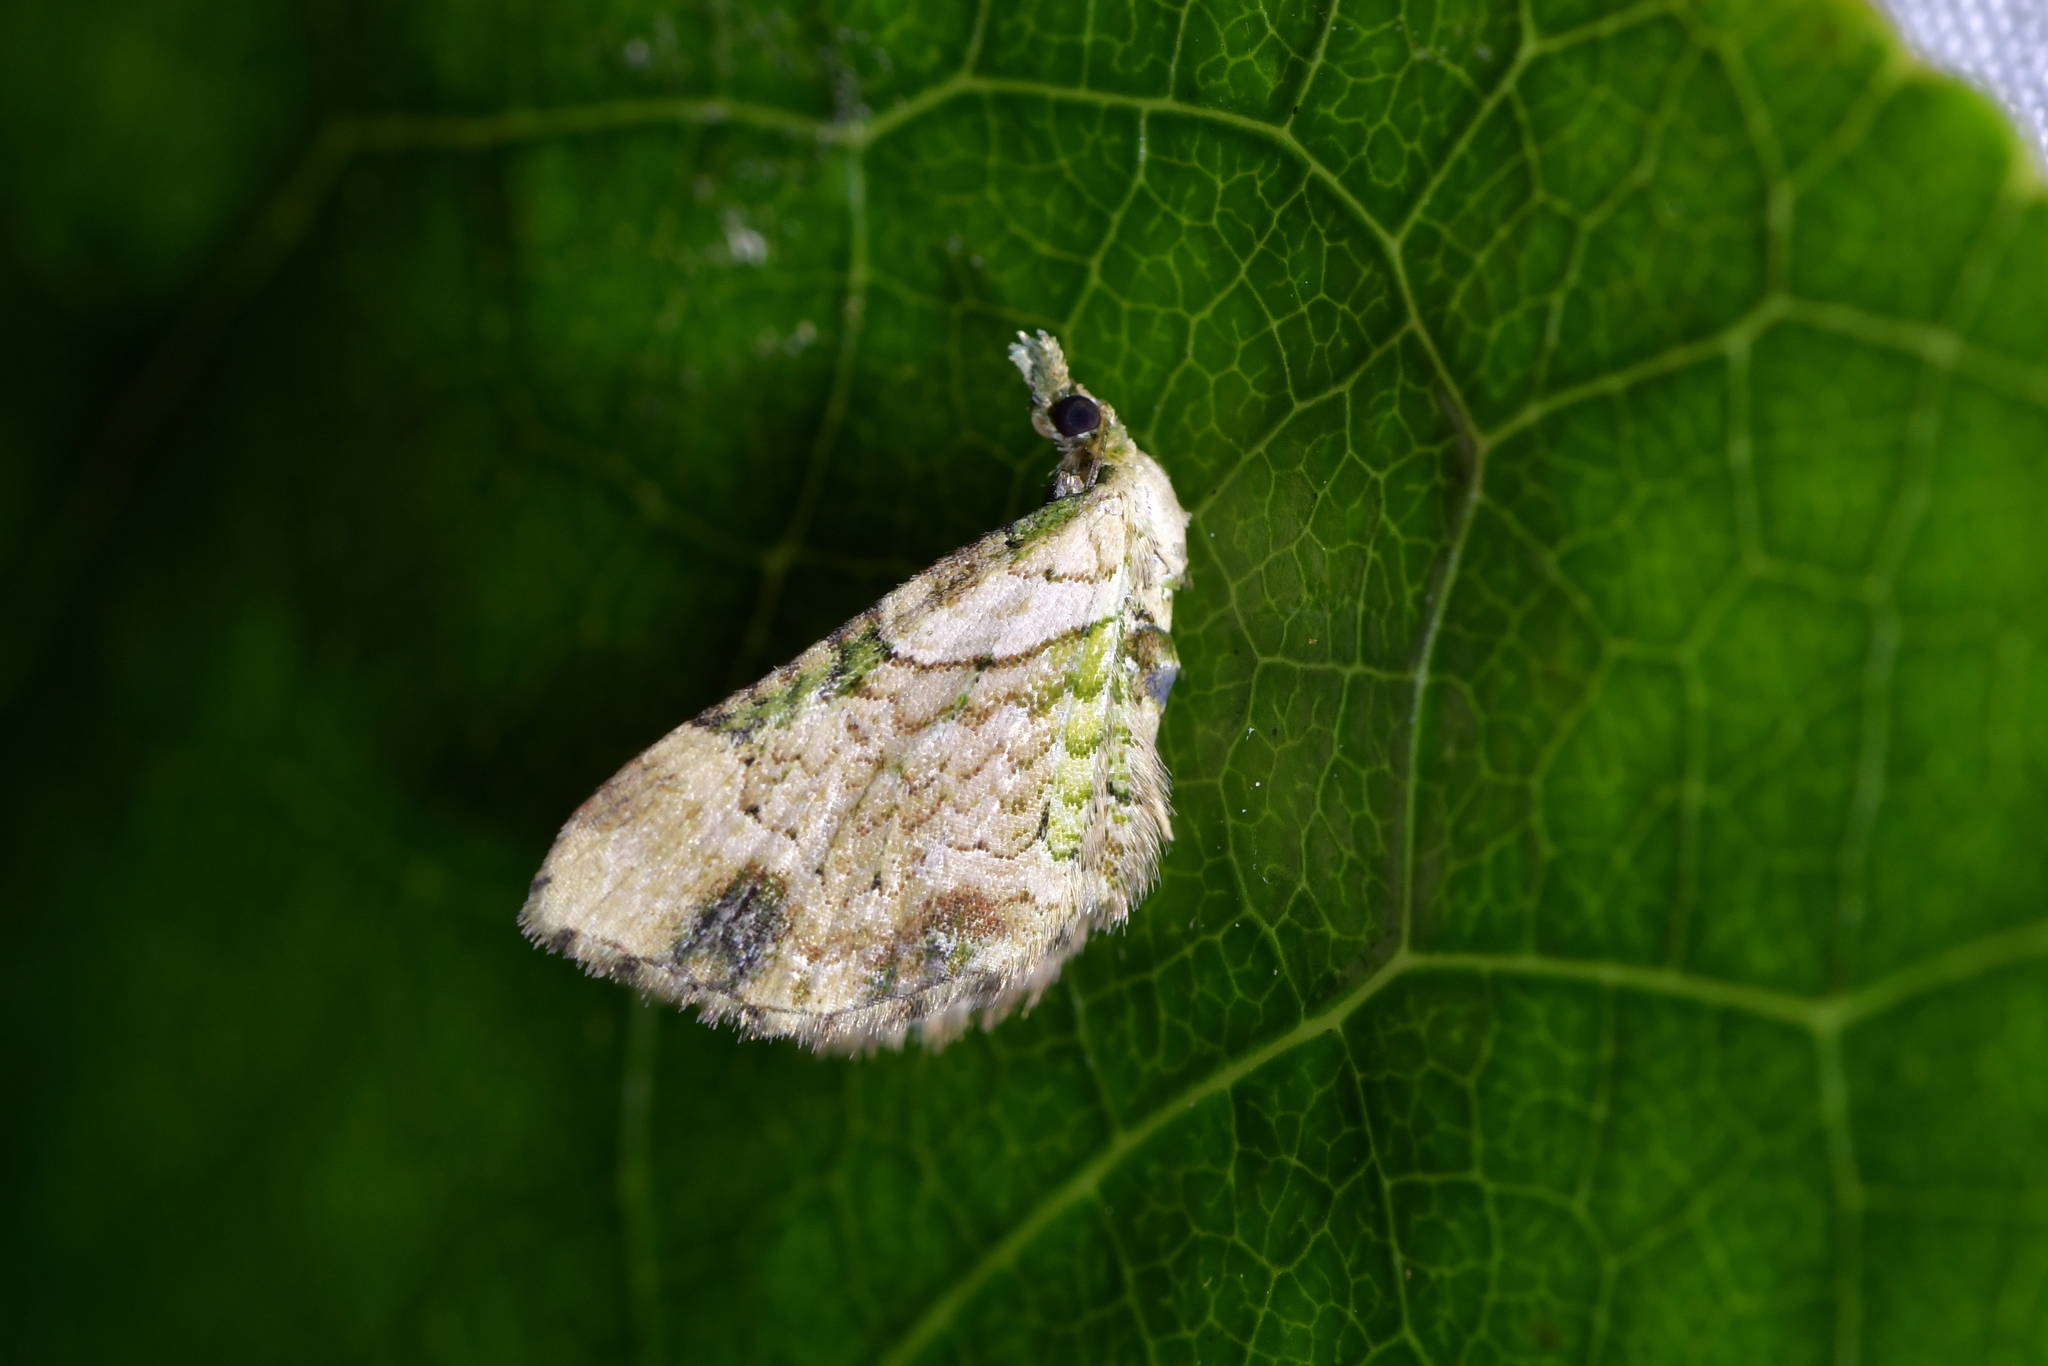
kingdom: Animalia
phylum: Arthropoda
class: Insecta
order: Lepidoptera
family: Geometridae
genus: Chloroclystis
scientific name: Chloroclystis
